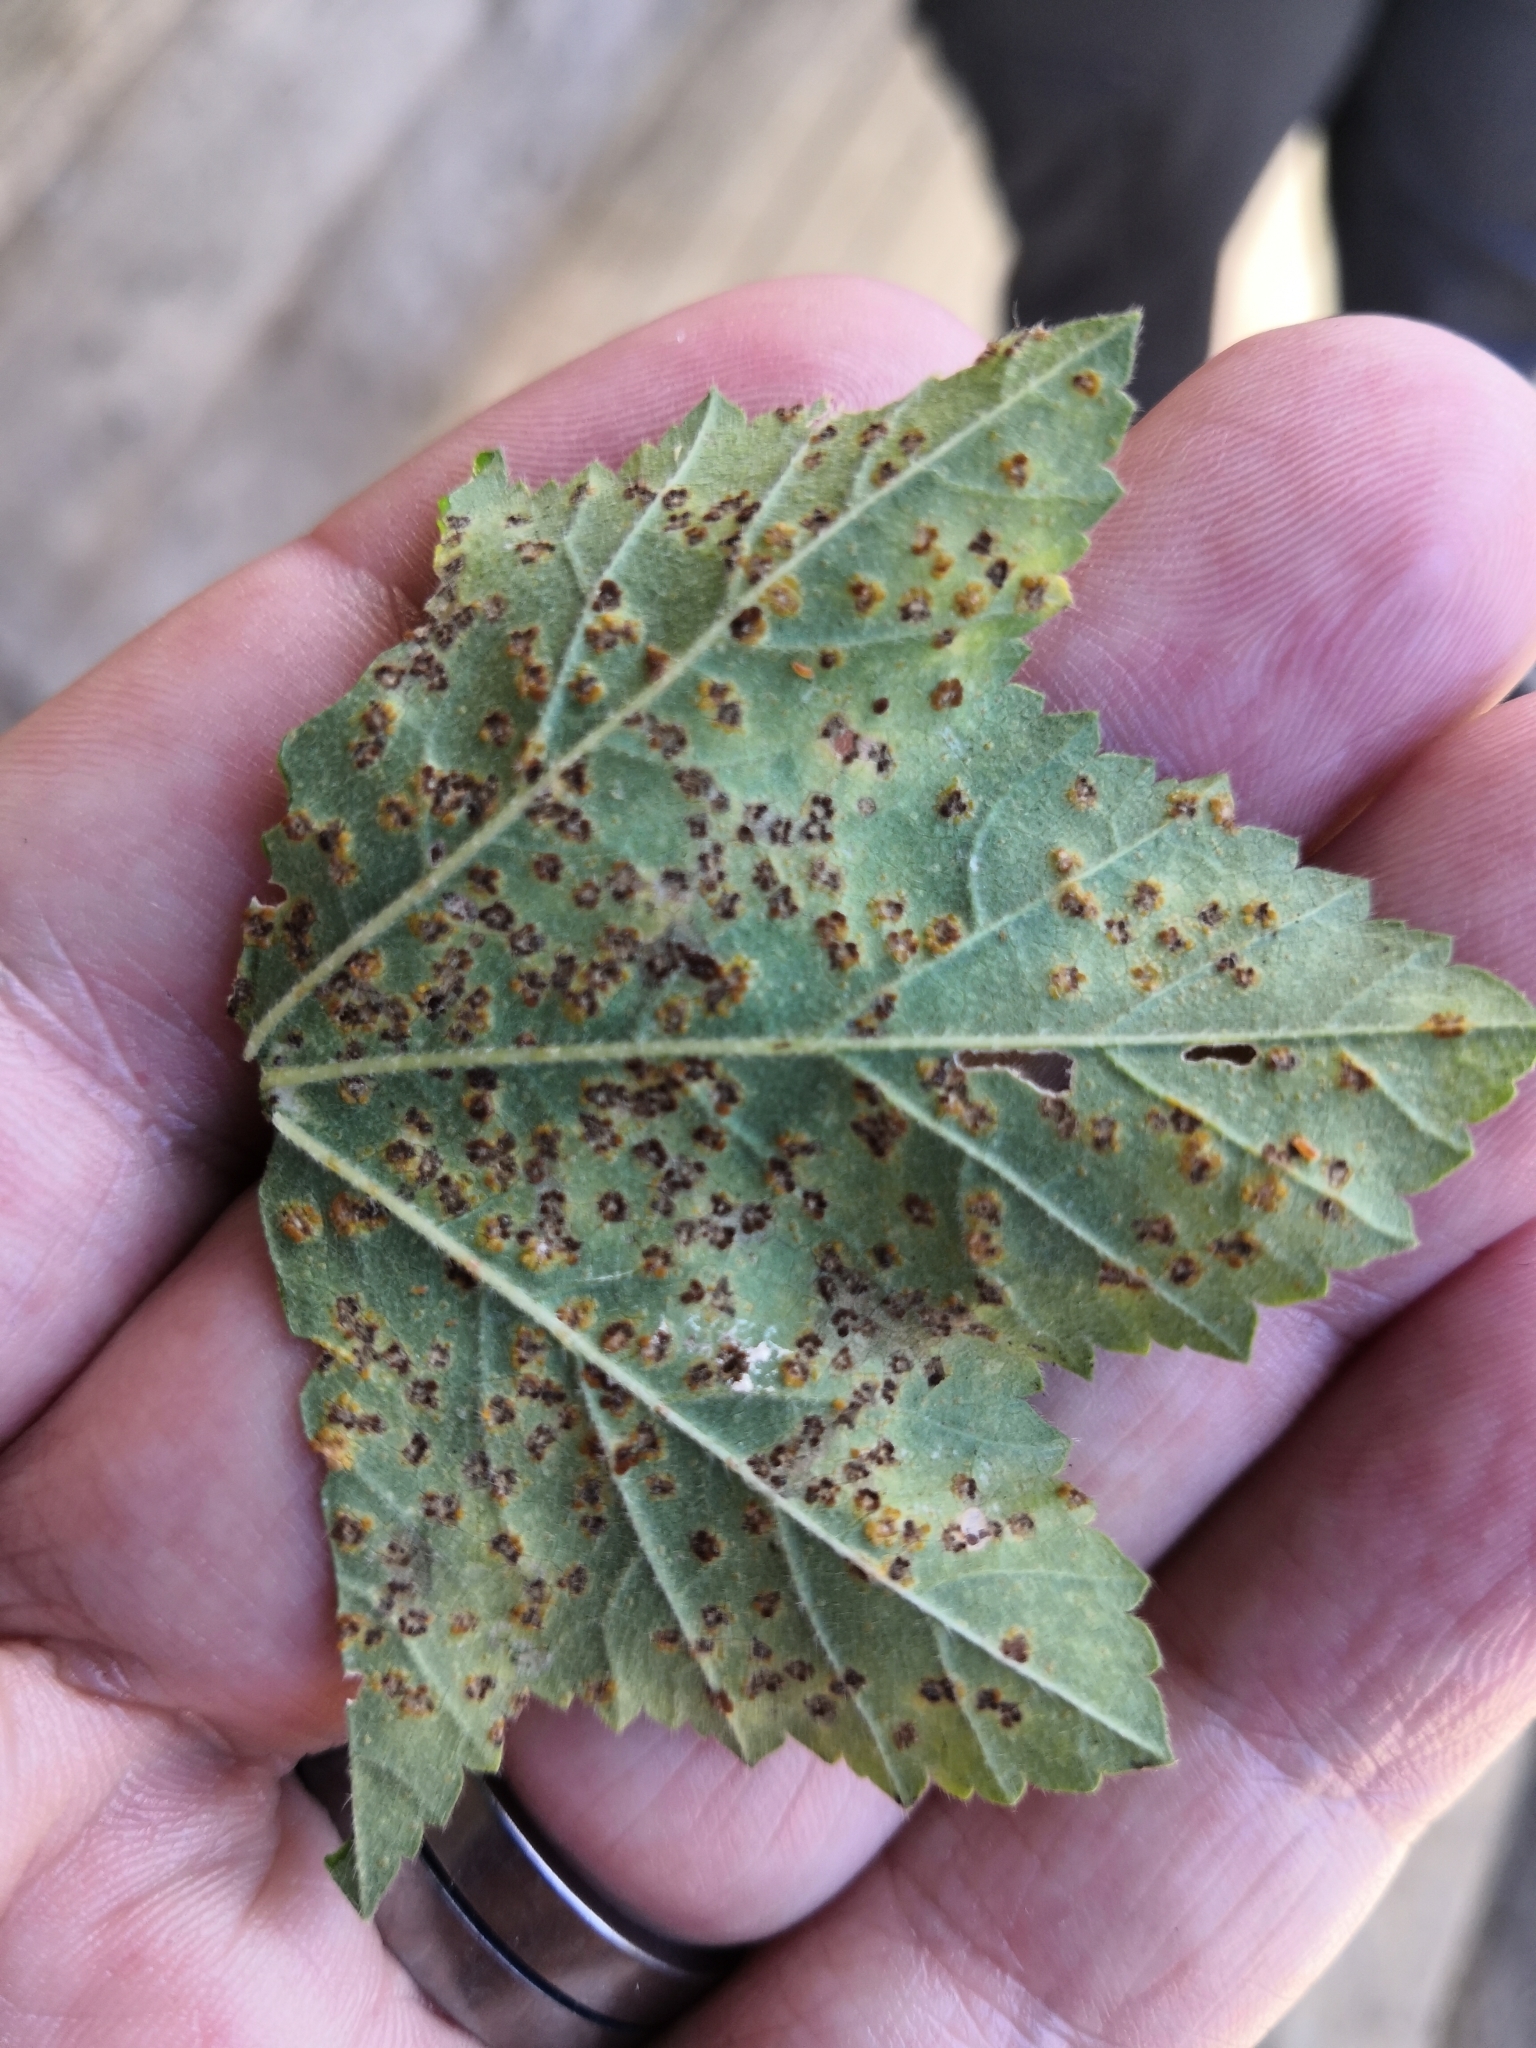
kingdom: Fungi
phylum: Basidiomycota
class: Pucciniomycetes
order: Pucciniales
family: Pucciniaceae
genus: Puccinia
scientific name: Puccinia malvacearum
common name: Hollyhock rust
